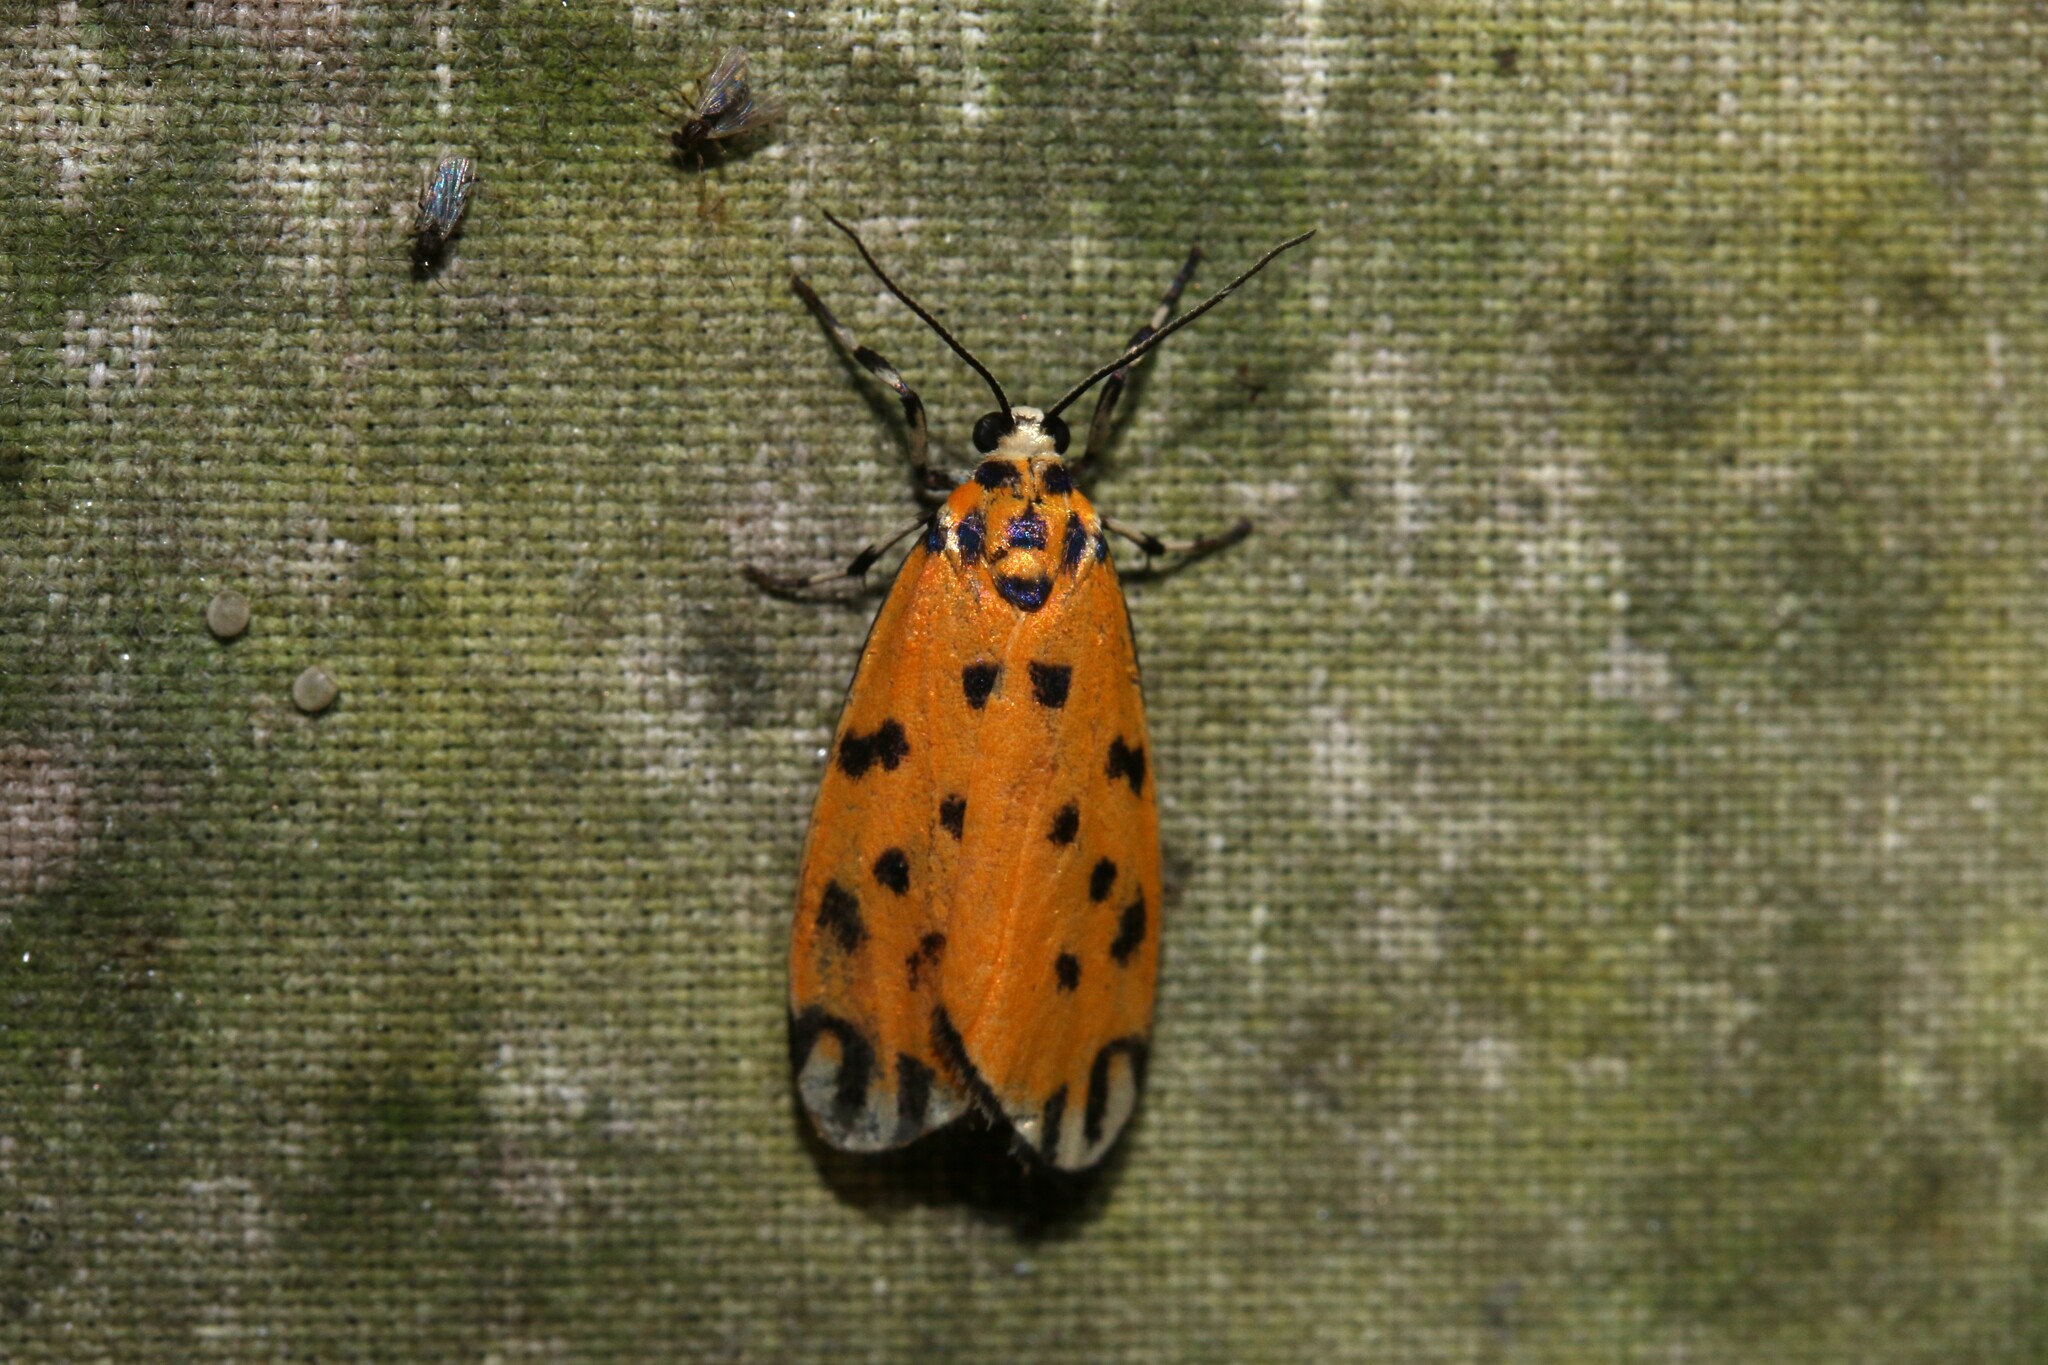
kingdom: Animalia
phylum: Arthropoda
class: Insecta
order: Lepidoptera
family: Erebidae
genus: Clemensia
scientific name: Clemensia donuca
